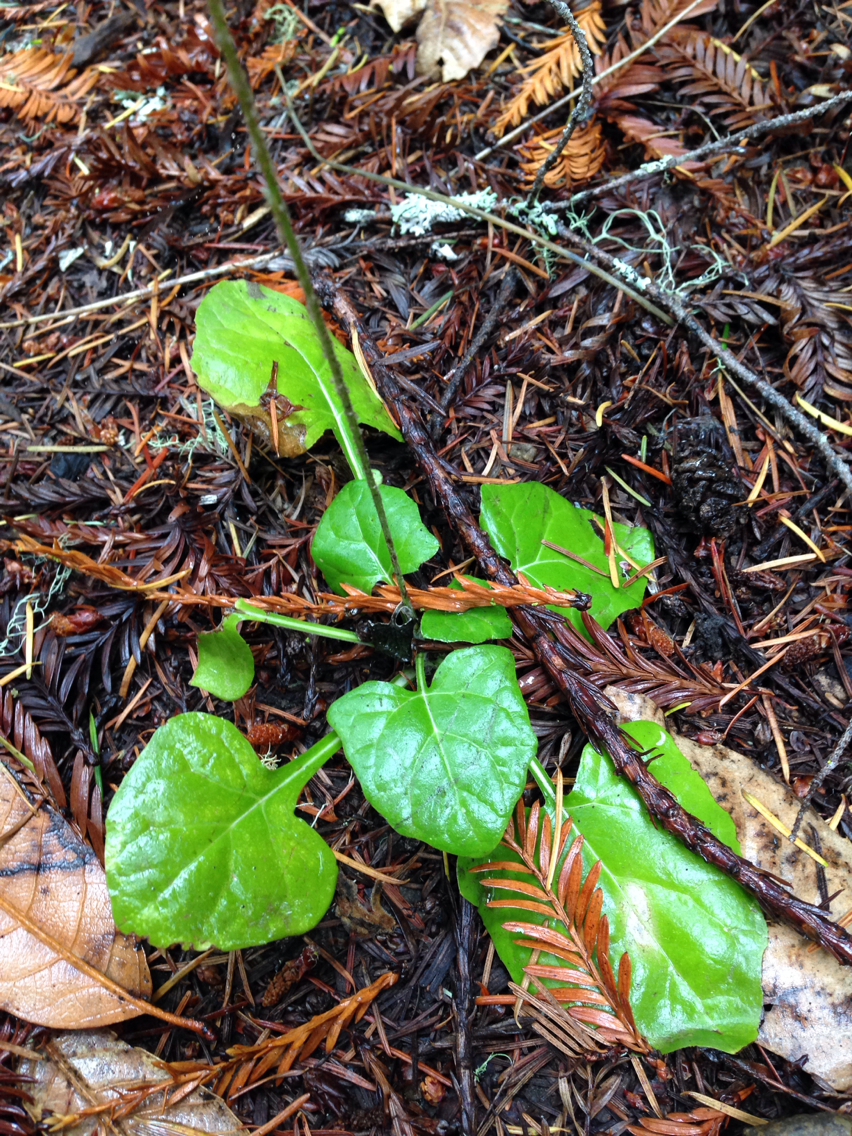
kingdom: Plantae
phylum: Tracheophyta
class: Magnoliopsida
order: Asterales
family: Asteraceae
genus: Adenocaulon
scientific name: Adenocaulon bicolor
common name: Trailplant
